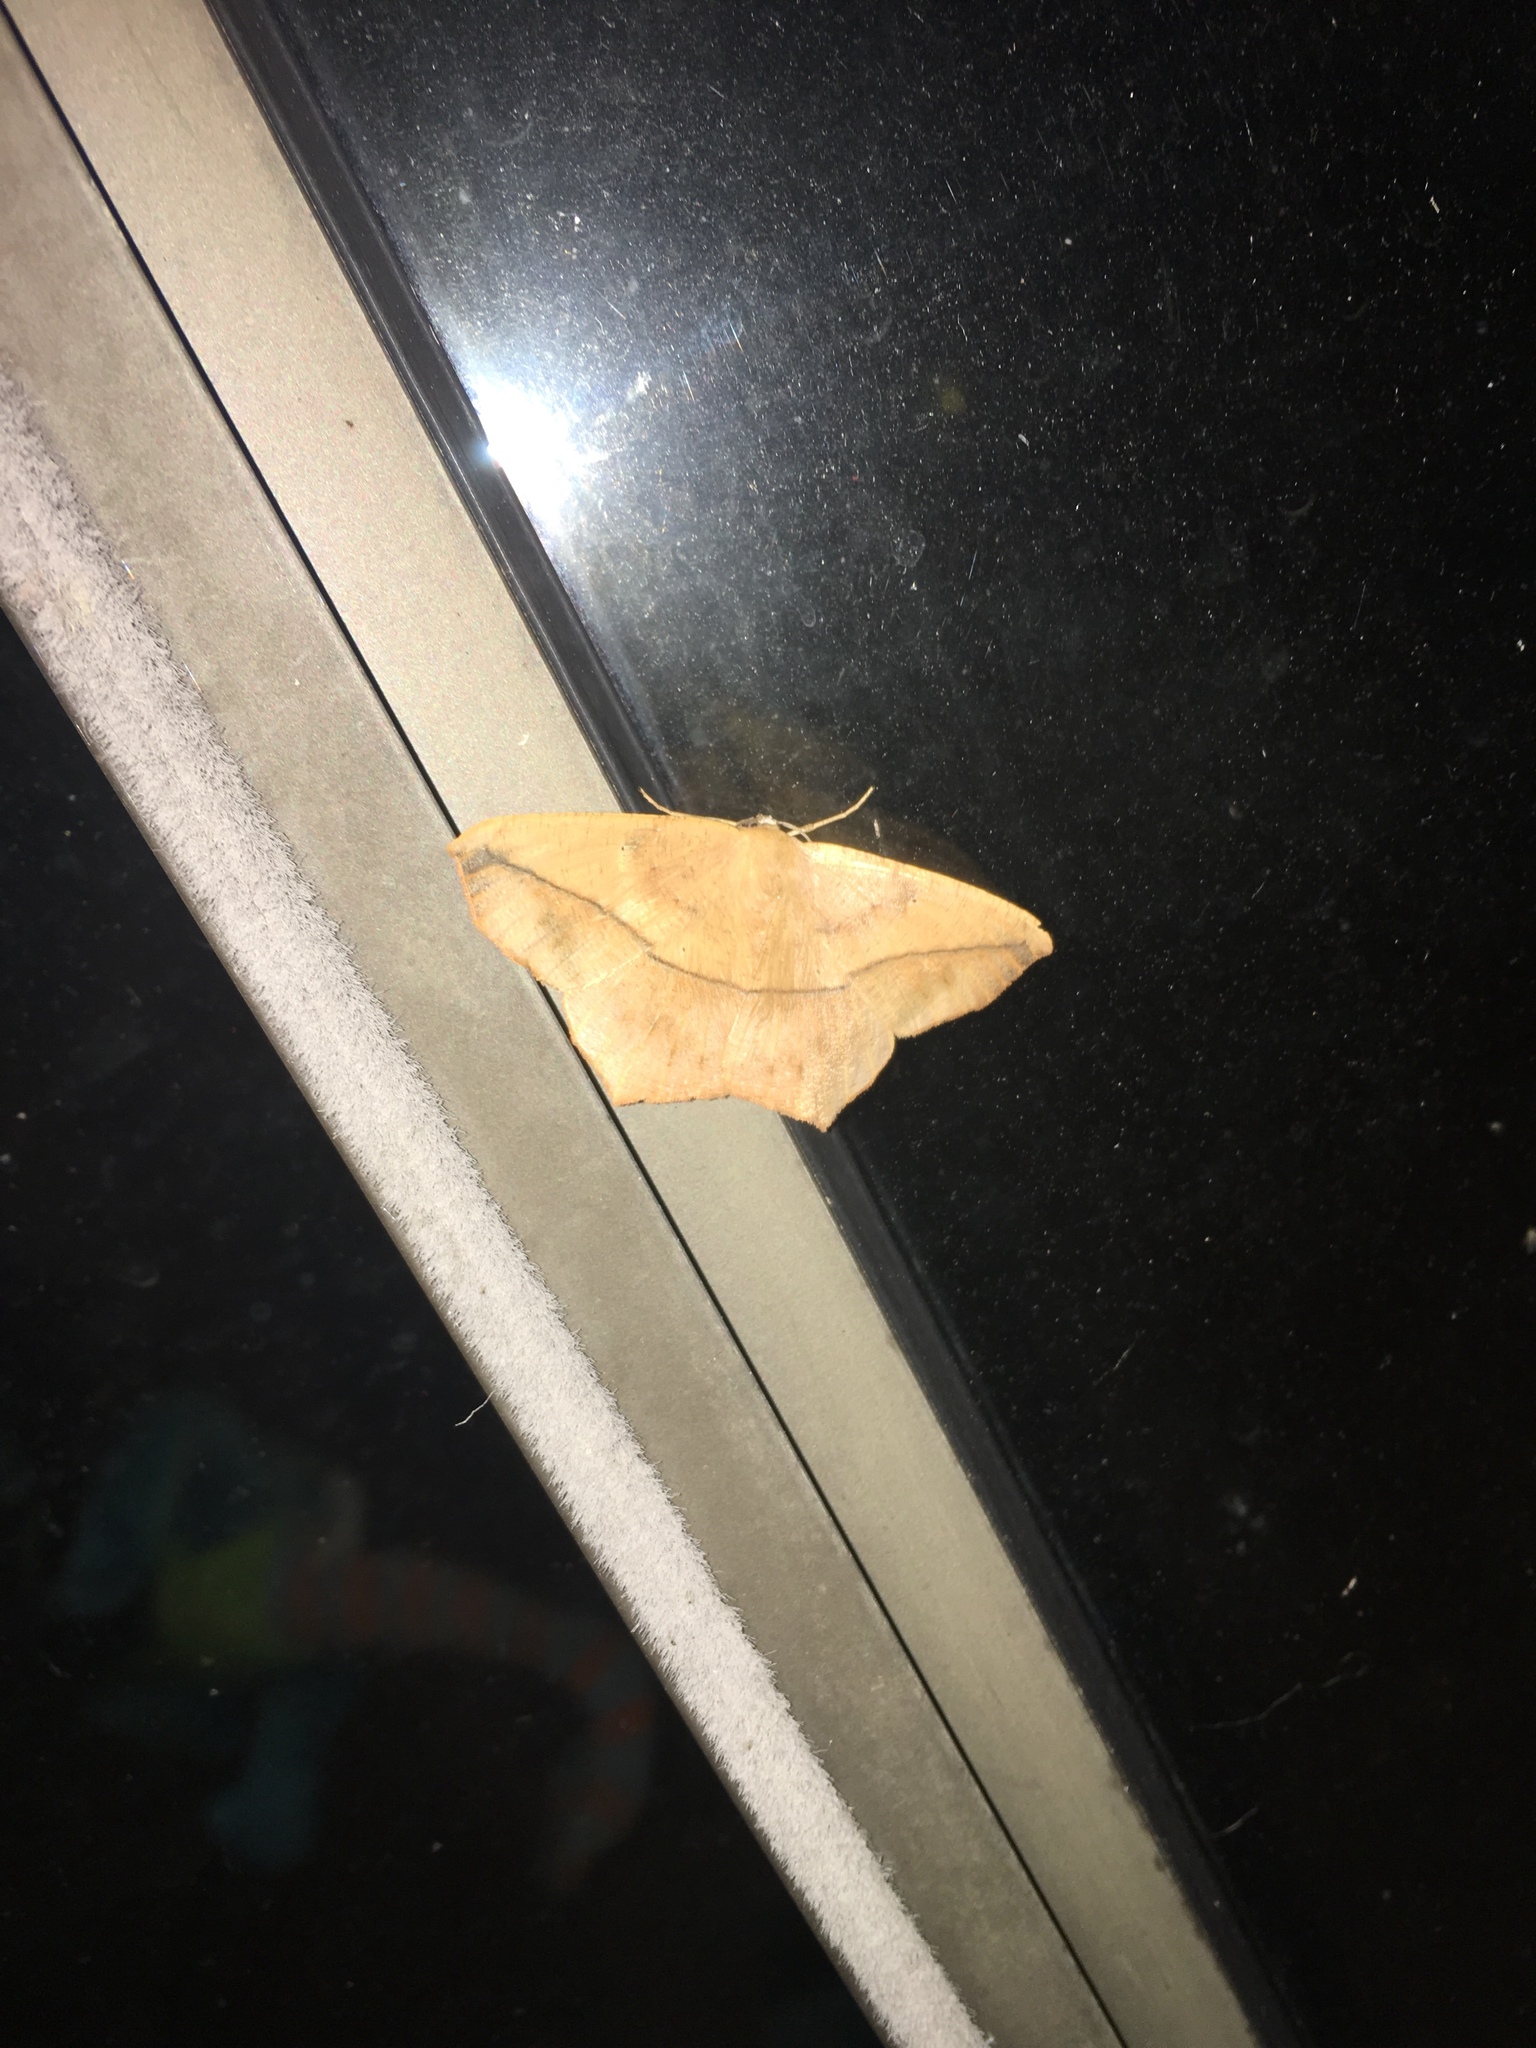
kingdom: Animalia
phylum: Arthropoda
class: Insecta
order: Lepidoptera
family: Geometridae
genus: Prochoerodes
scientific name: Prochoerodes lineola
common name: Large maple spanworm
